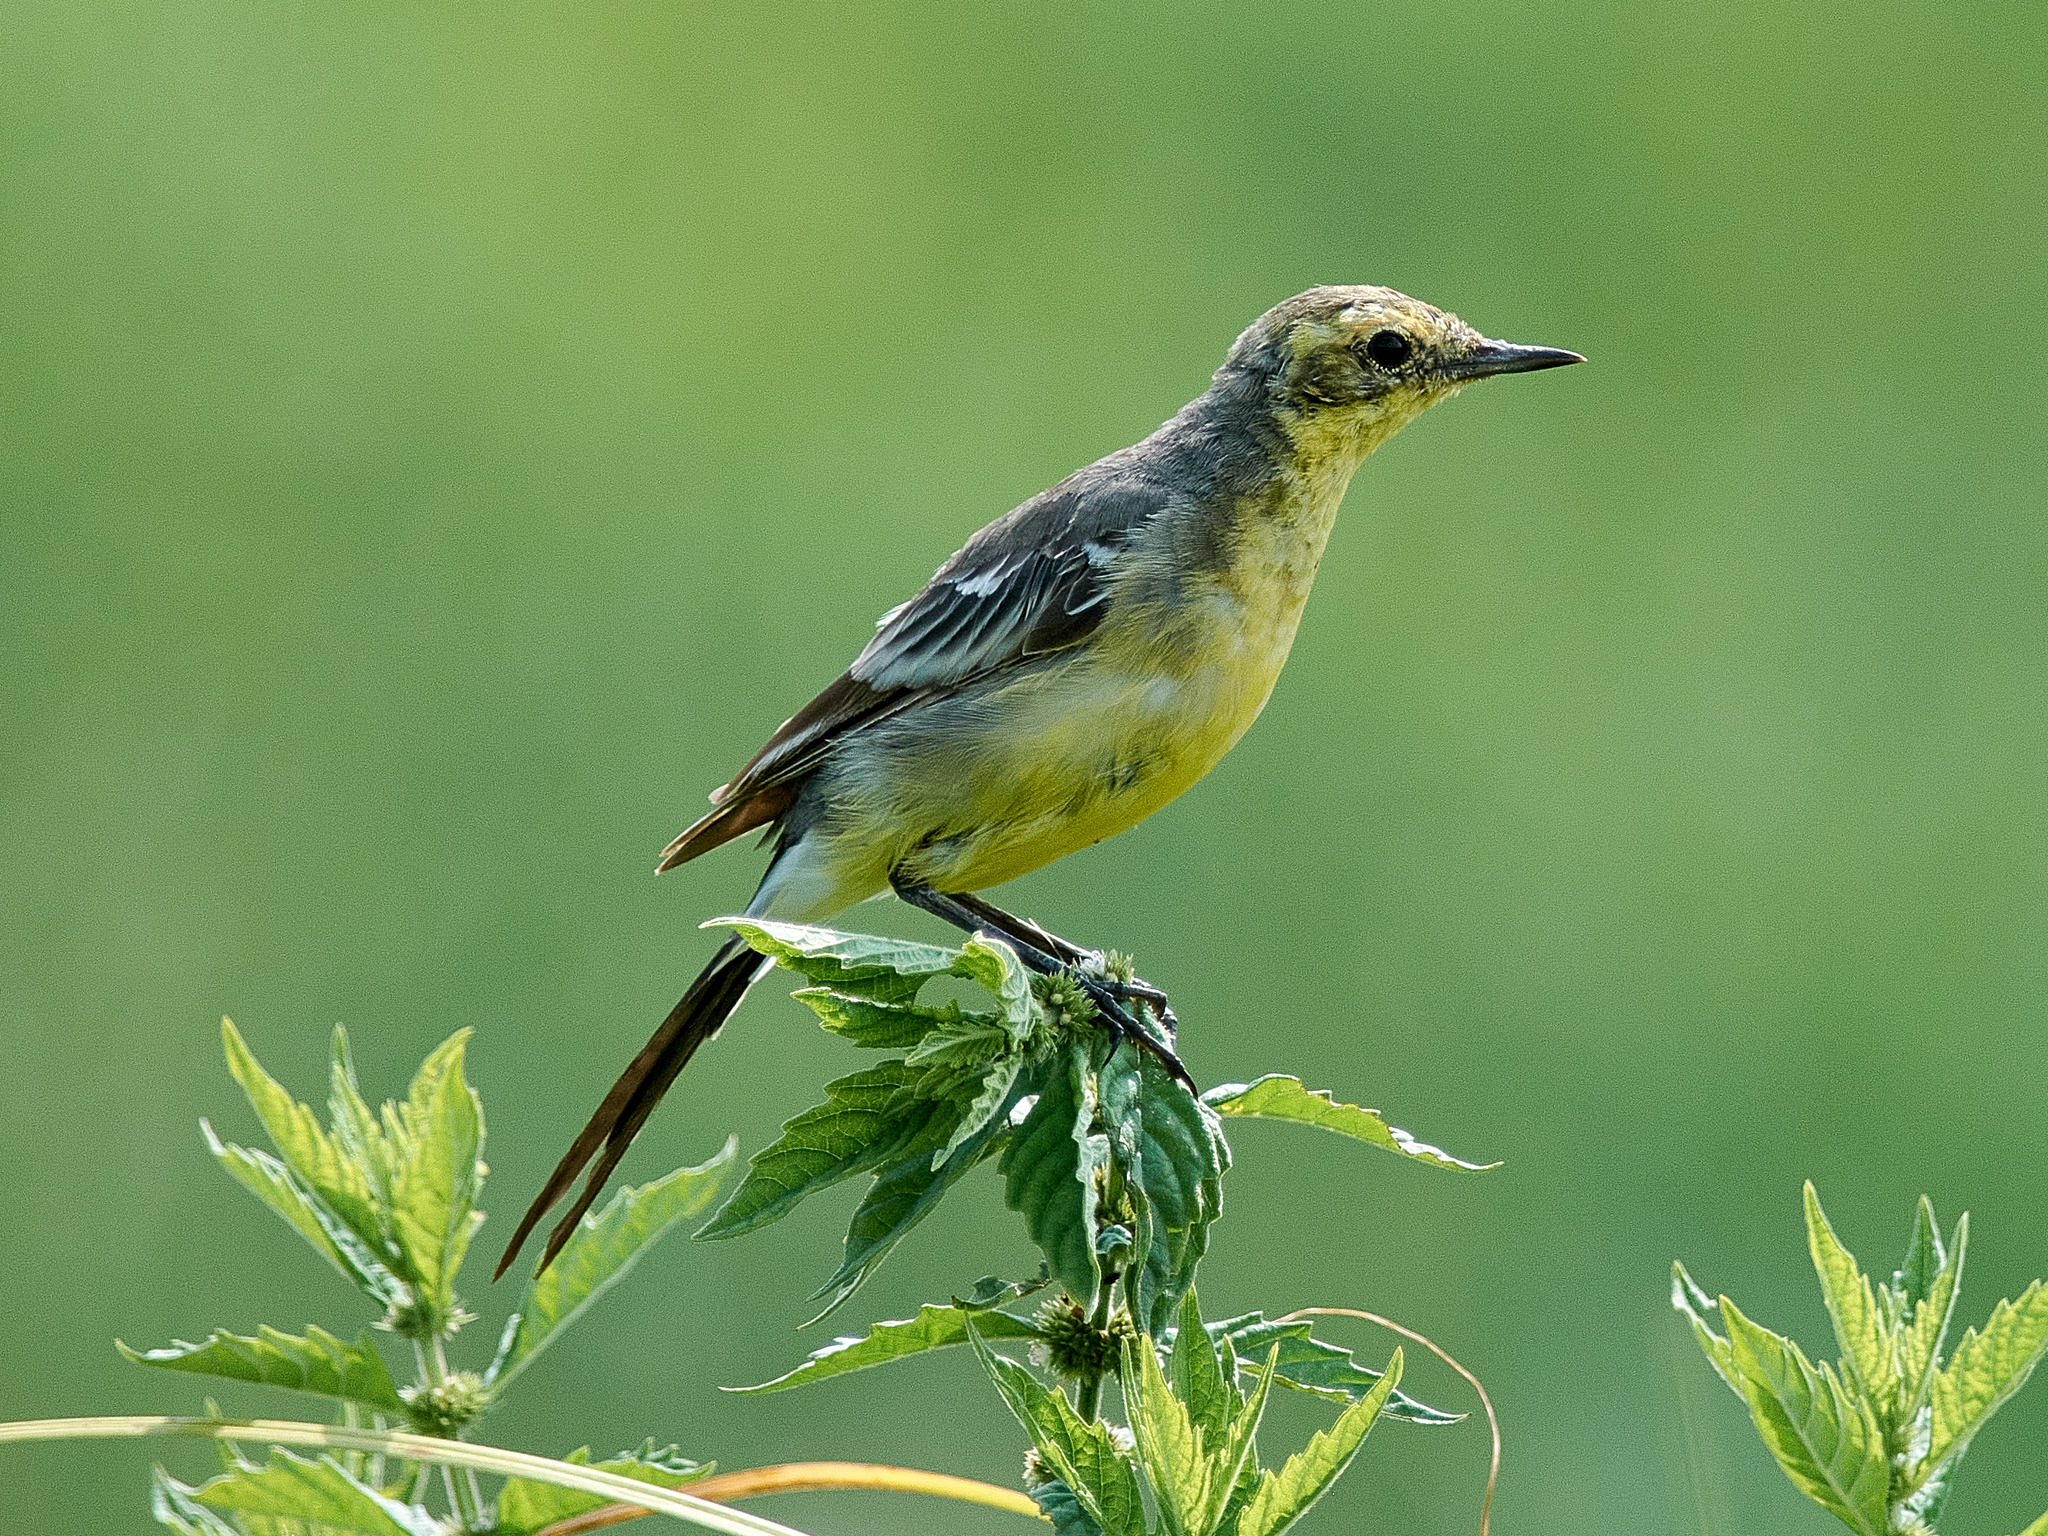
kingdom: Animalia
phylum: Chordata
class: Aves
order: Passeriformes
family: Motacillidae
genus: Motacilla
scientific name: Motacilla citreola
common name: Citrine wagtail
